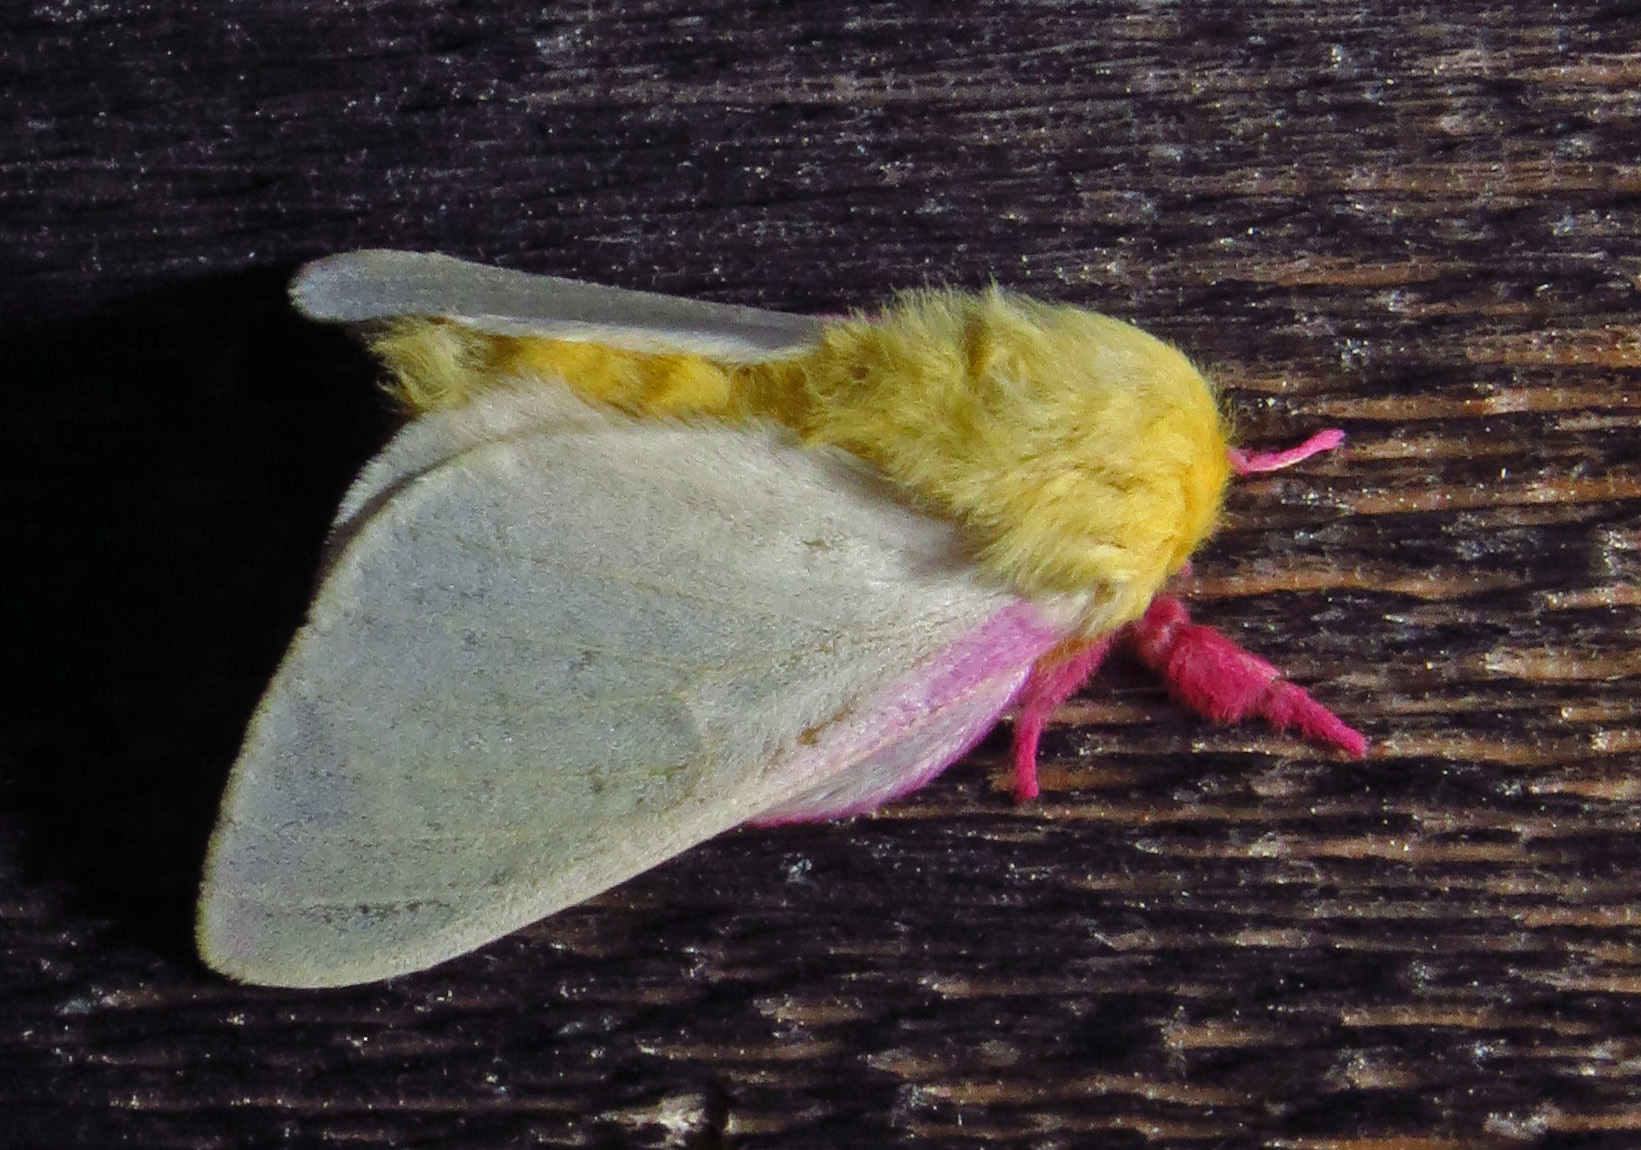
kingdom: Animalia
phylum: Arthropoda
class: Insecta
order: Lepidoptera
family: Saturniidae
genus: Dryocampa
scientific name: Dryocampa rubicunda
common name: Rosy maple moth
